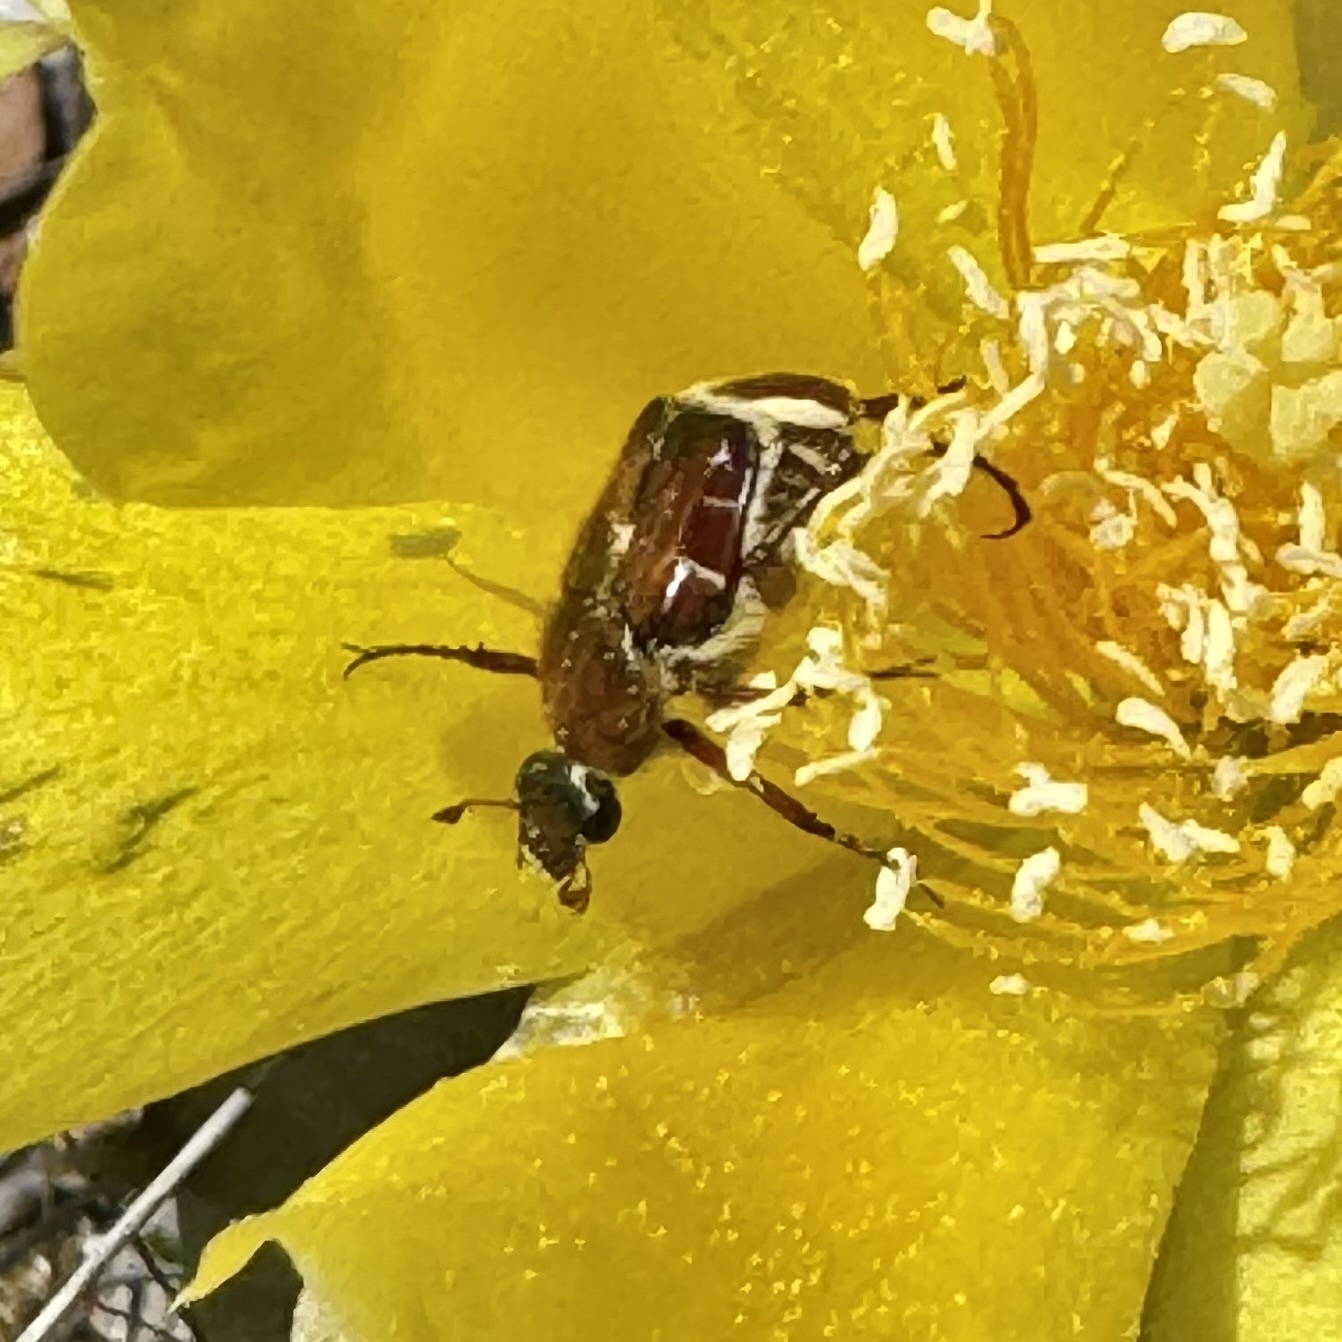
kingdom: Animalia
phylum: Arthropoda
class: Insecta
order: Coleoptera
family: Scarabaeidae
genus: Trichiotinus
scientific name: Trichiotinus rufobrunneus
